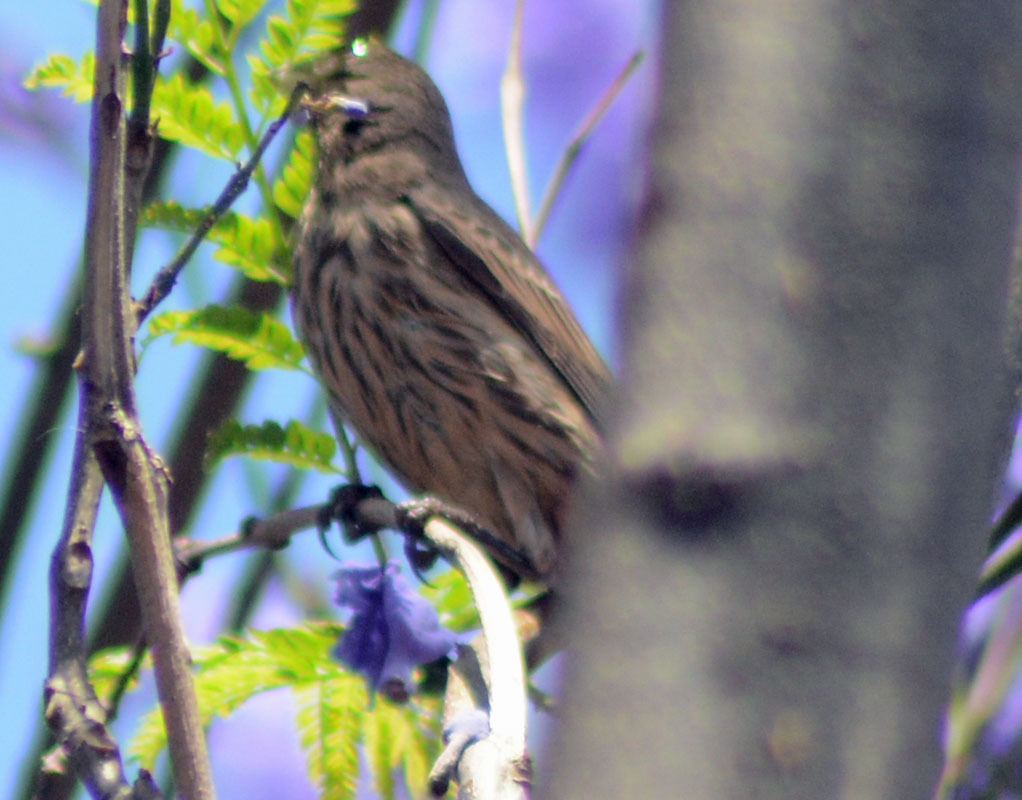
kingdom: Animalia
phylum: Chordata
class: Aves
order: Passeriformes
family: Fringillidae
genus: Haemorhous
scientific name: Haemorhous mexicanus
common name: House finch
